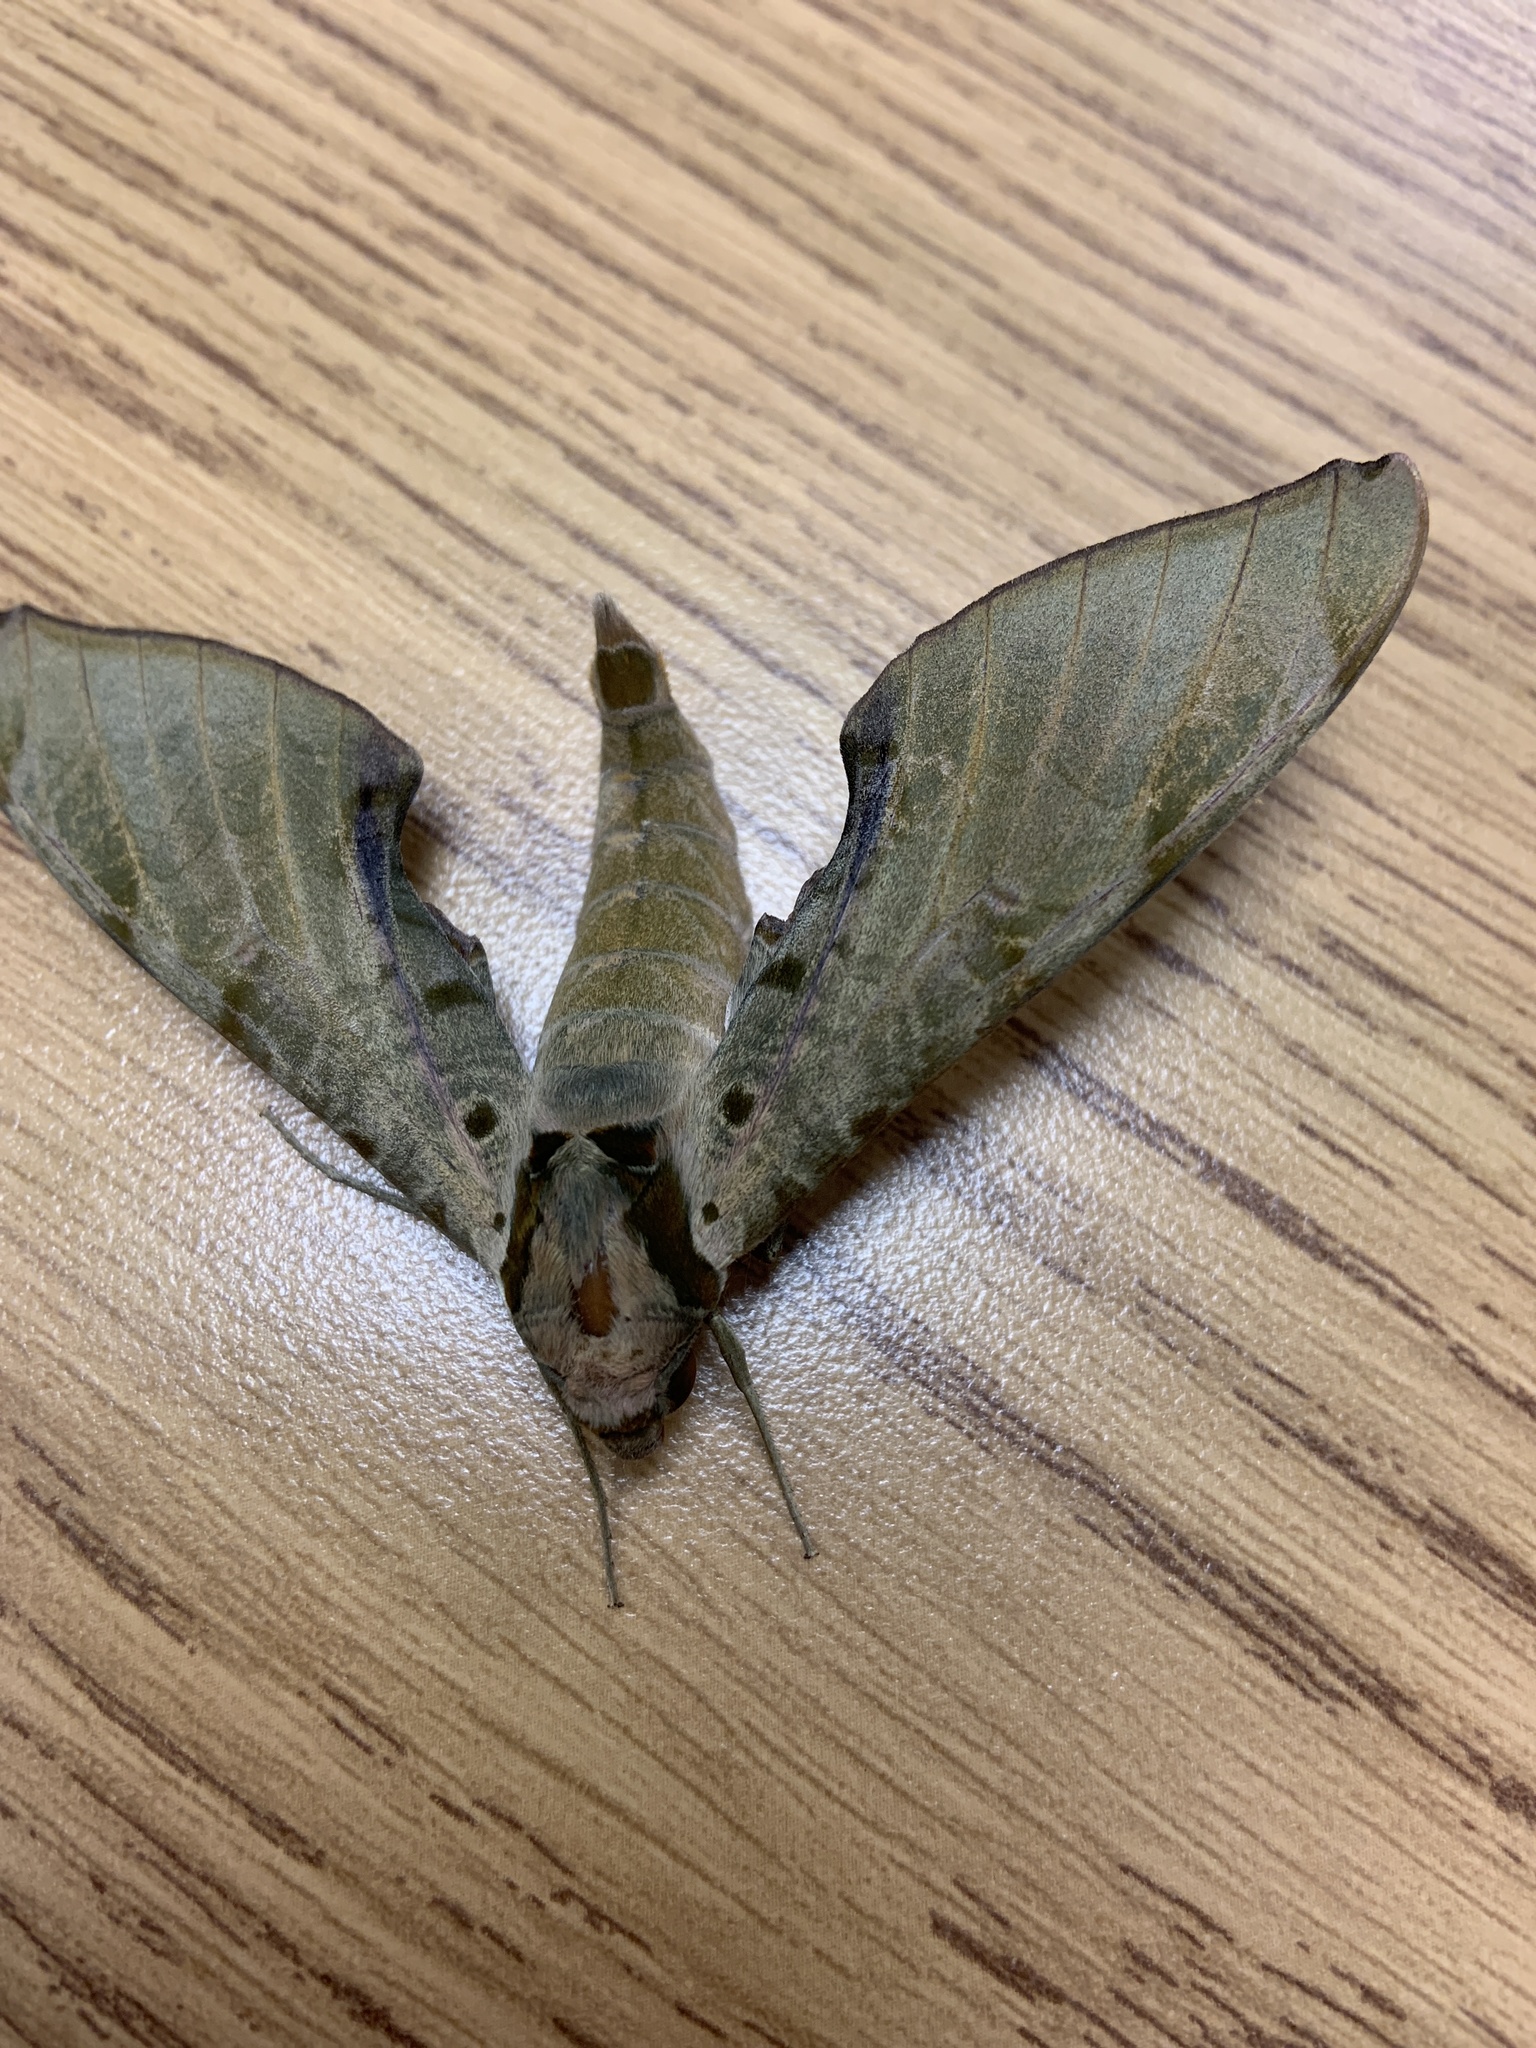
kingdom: Animalia
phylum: Arthropoda
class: Insecta
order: Lepidoptera
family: Sphingidae
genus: Protambulyx
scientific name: Protambulyx strigilis
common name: Streaked sphinx
